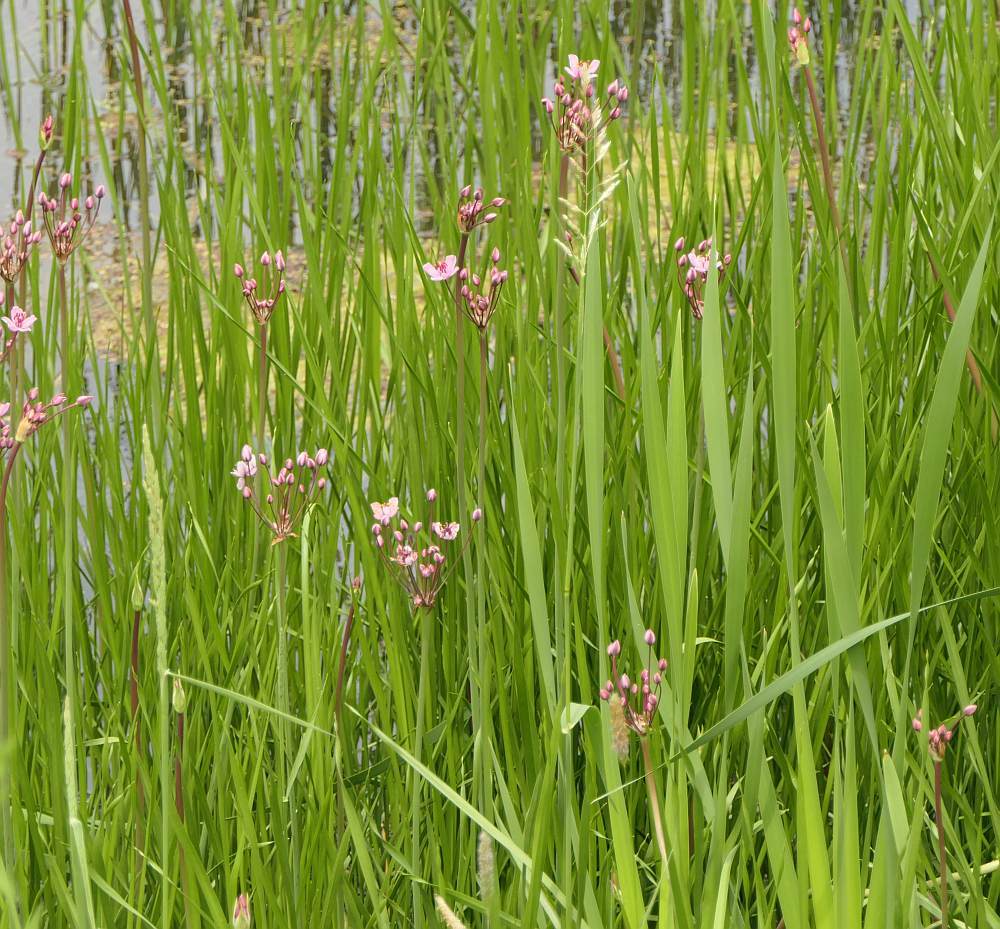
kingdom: Plantae
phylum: Tracheophyta
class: Liliopsida
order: Alismatales
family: Butomaceae
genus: Butomus
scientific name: Butomus umbellatus
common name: Flowering-rush
